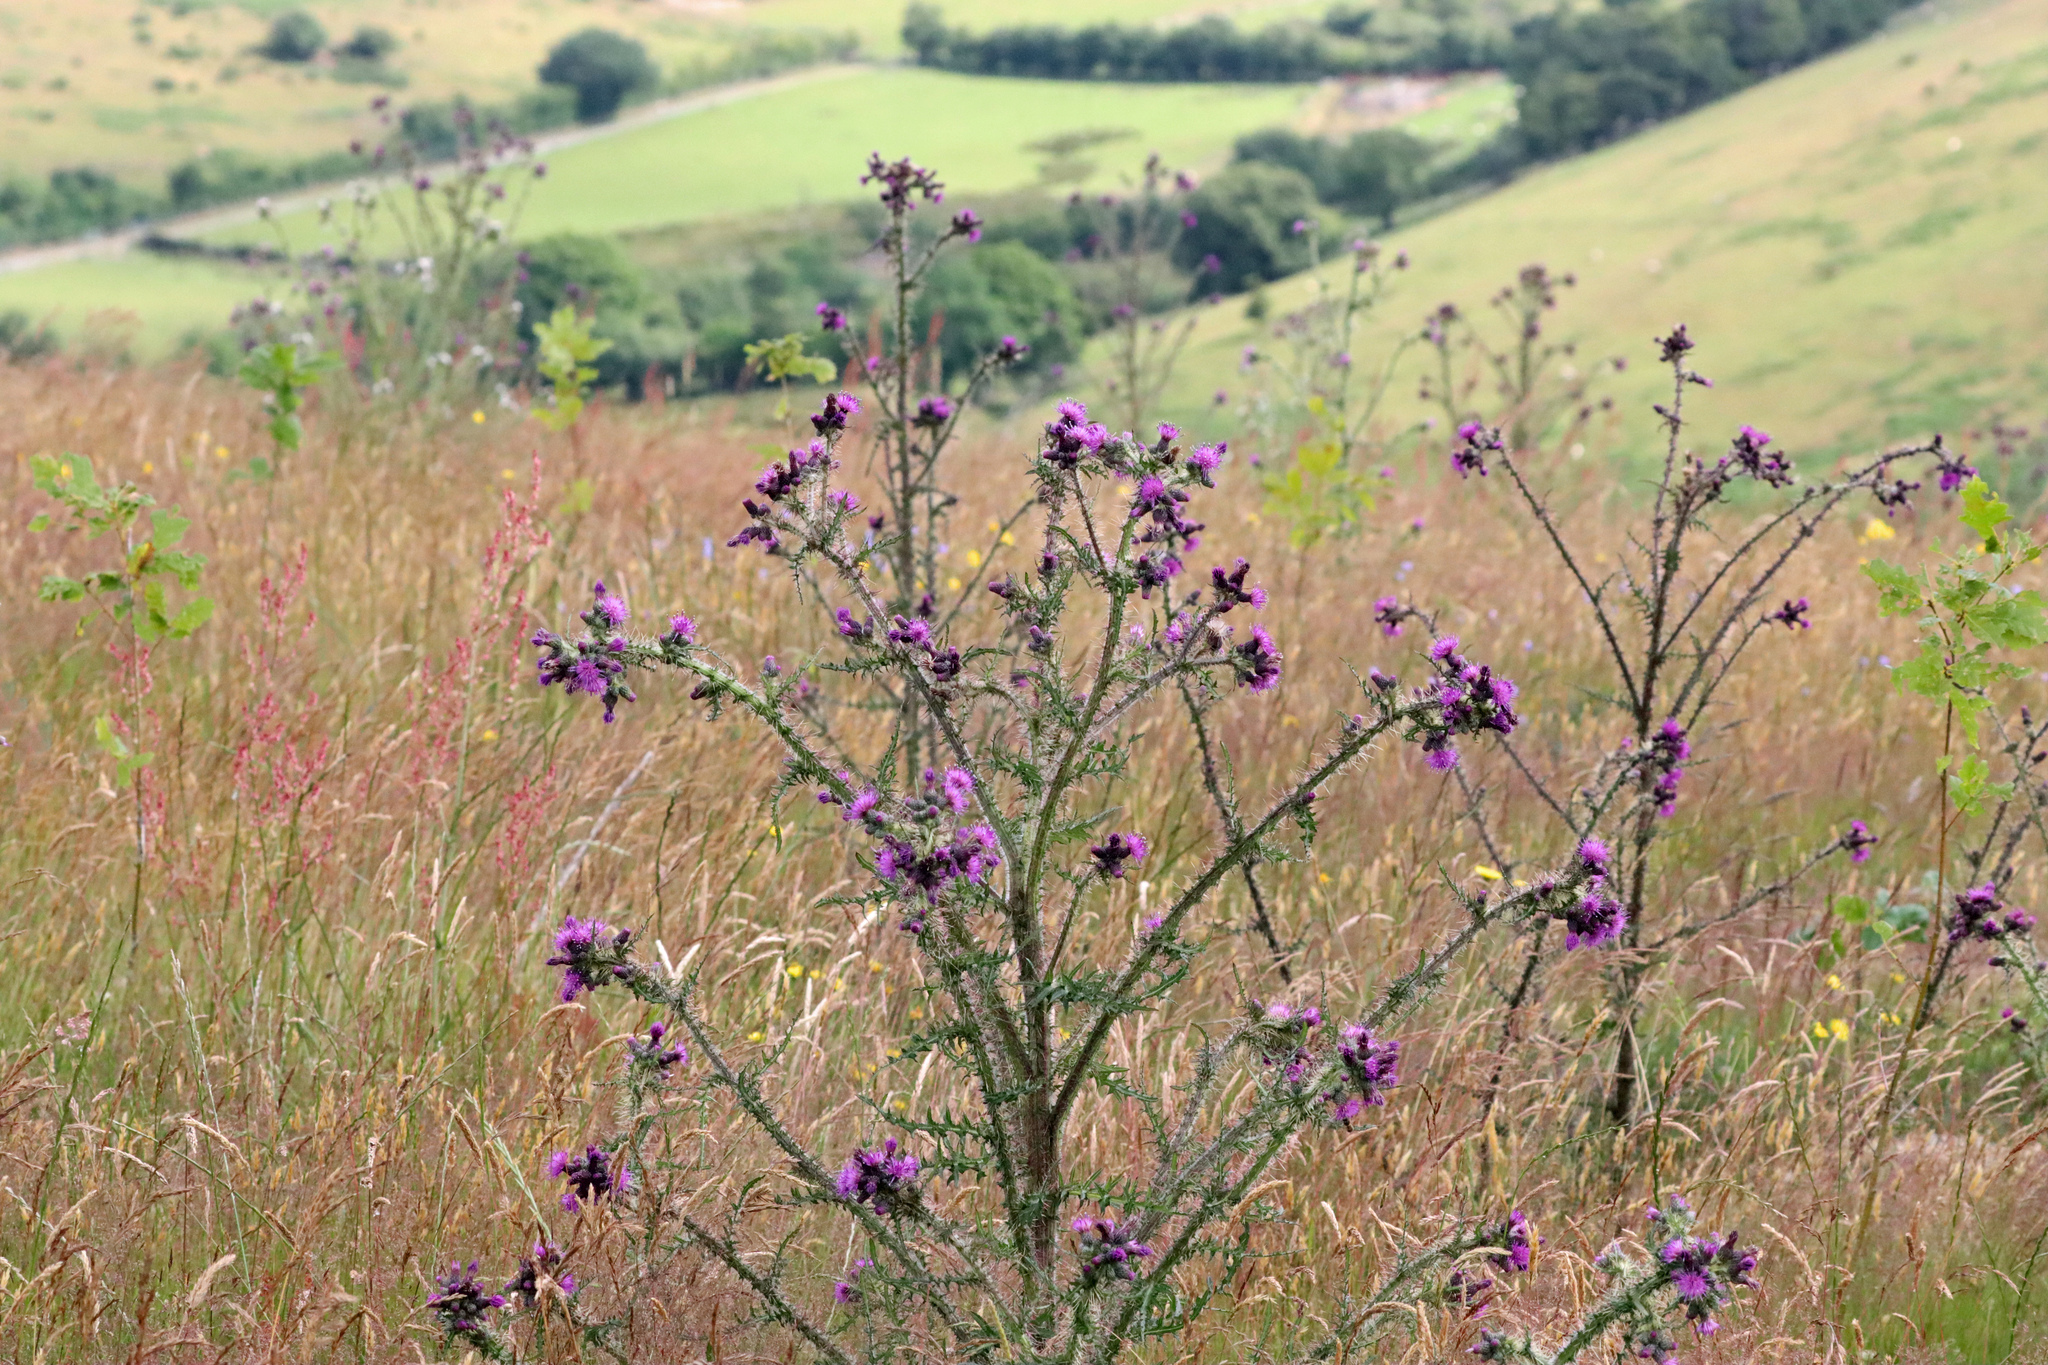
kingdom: Plantae
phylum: Tracheophyta
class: Magnoliopsida
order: Asterales
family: Asteraceae
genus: Cirsium
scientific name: Cirsium palustre
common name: Marsh thistle
